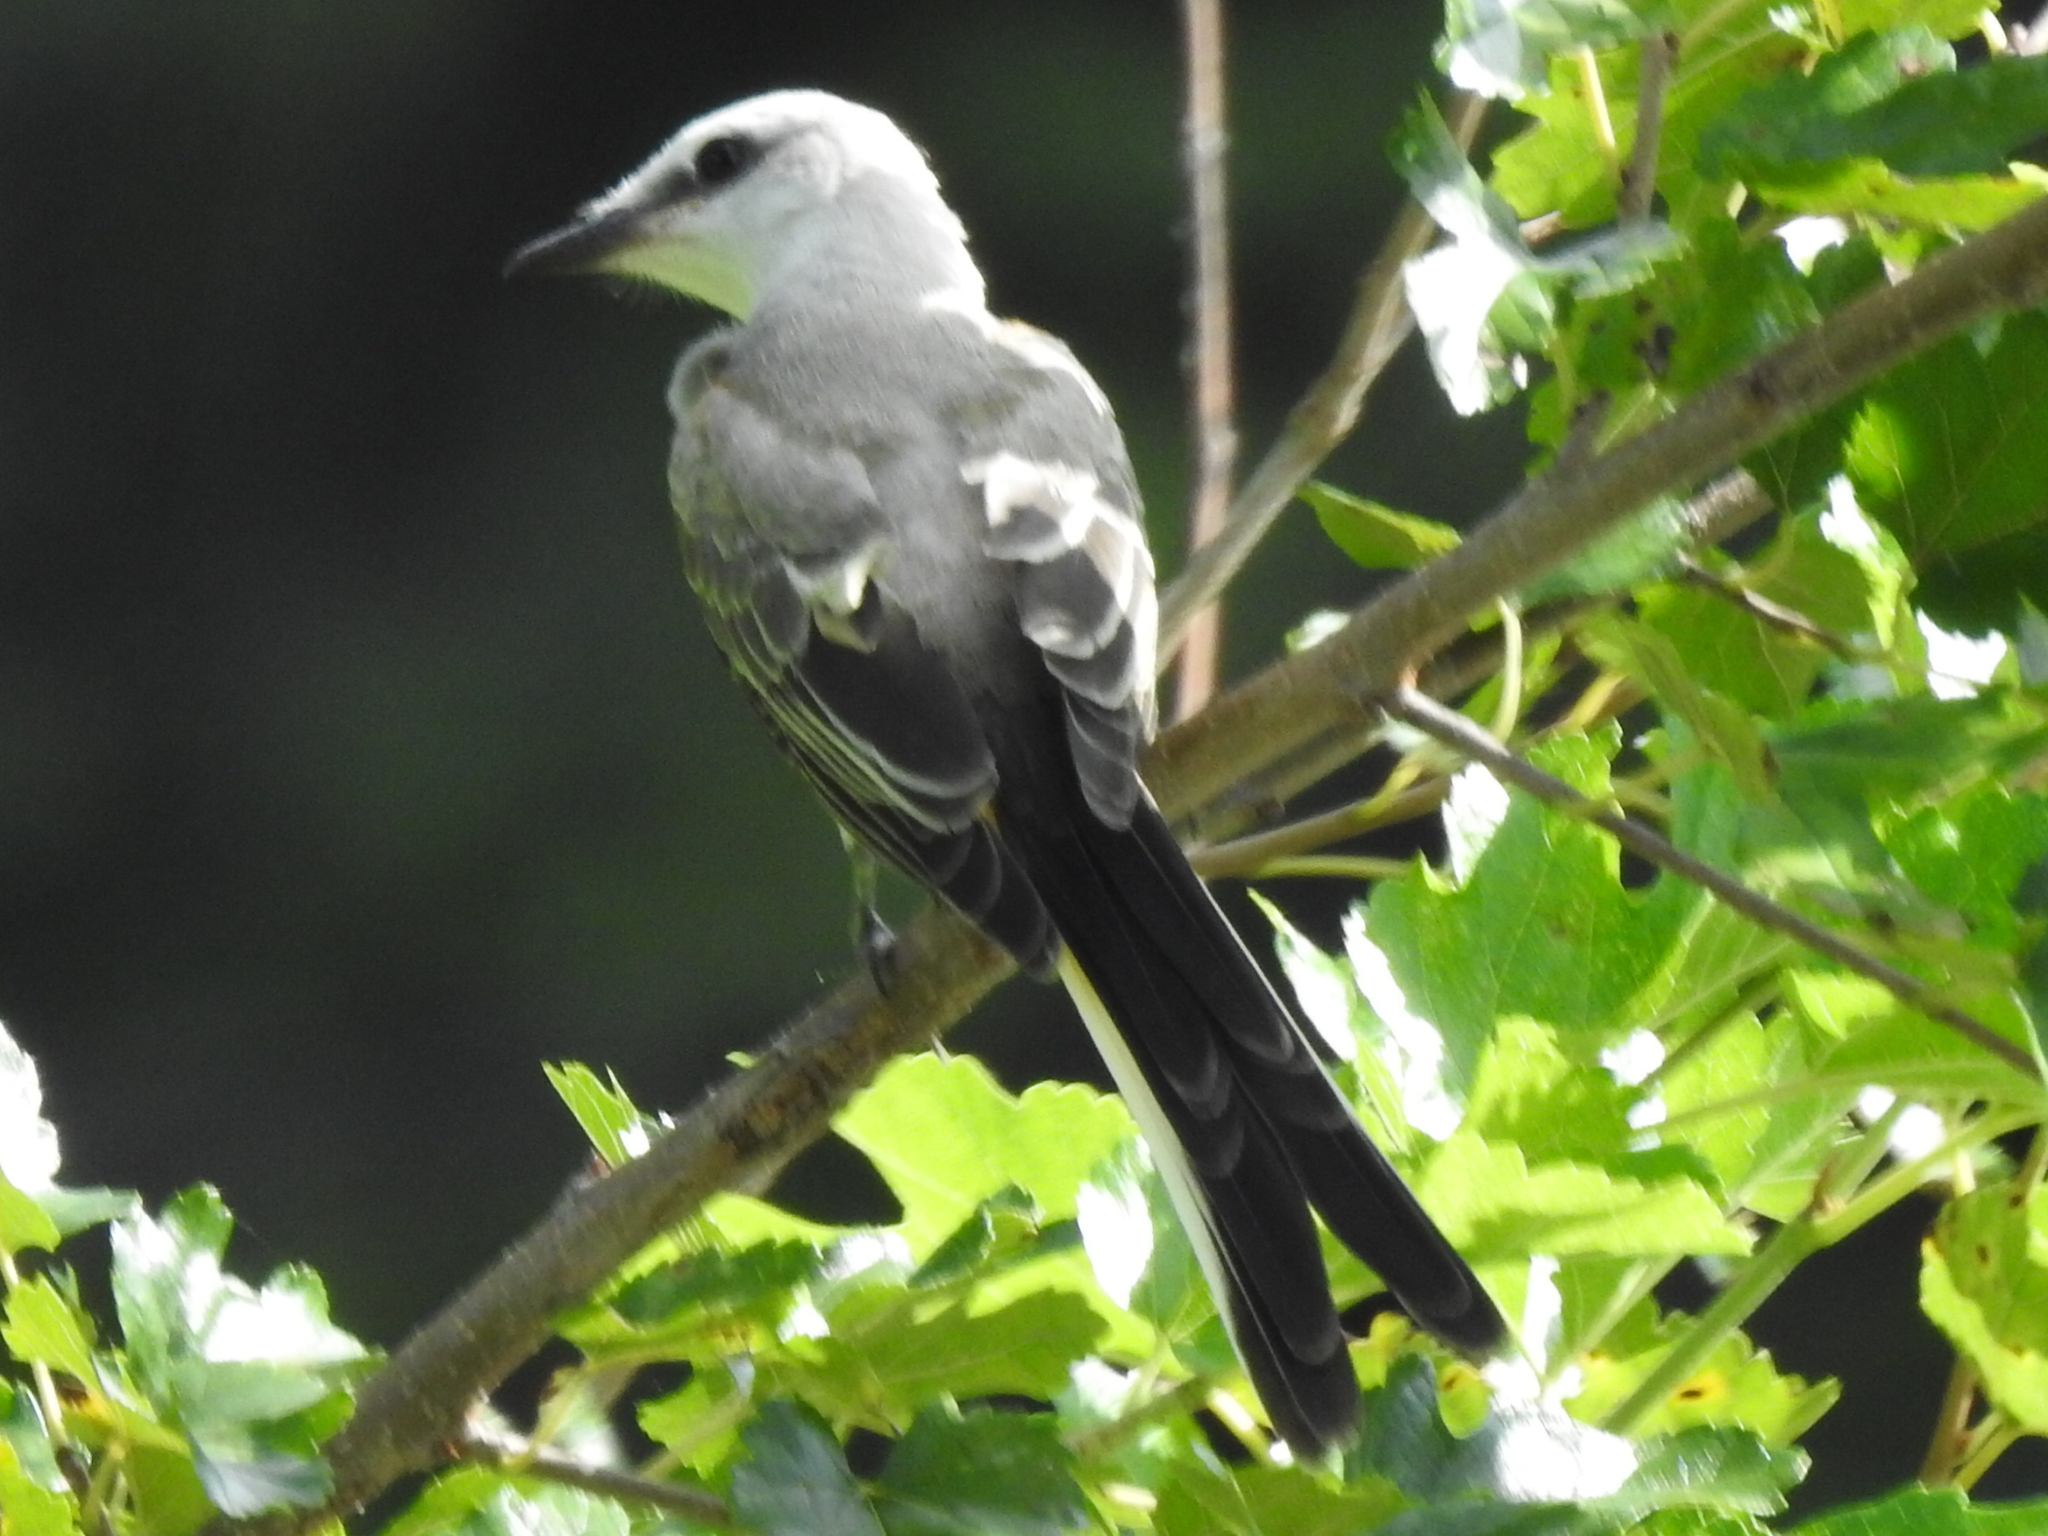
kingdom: Animalia
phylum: Chordata
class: Aves
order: Passeriformes
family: Tyrannidae
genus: Tyrannus
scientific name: Tyrannus forficatus
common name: Scissor-tailed flycatcher
